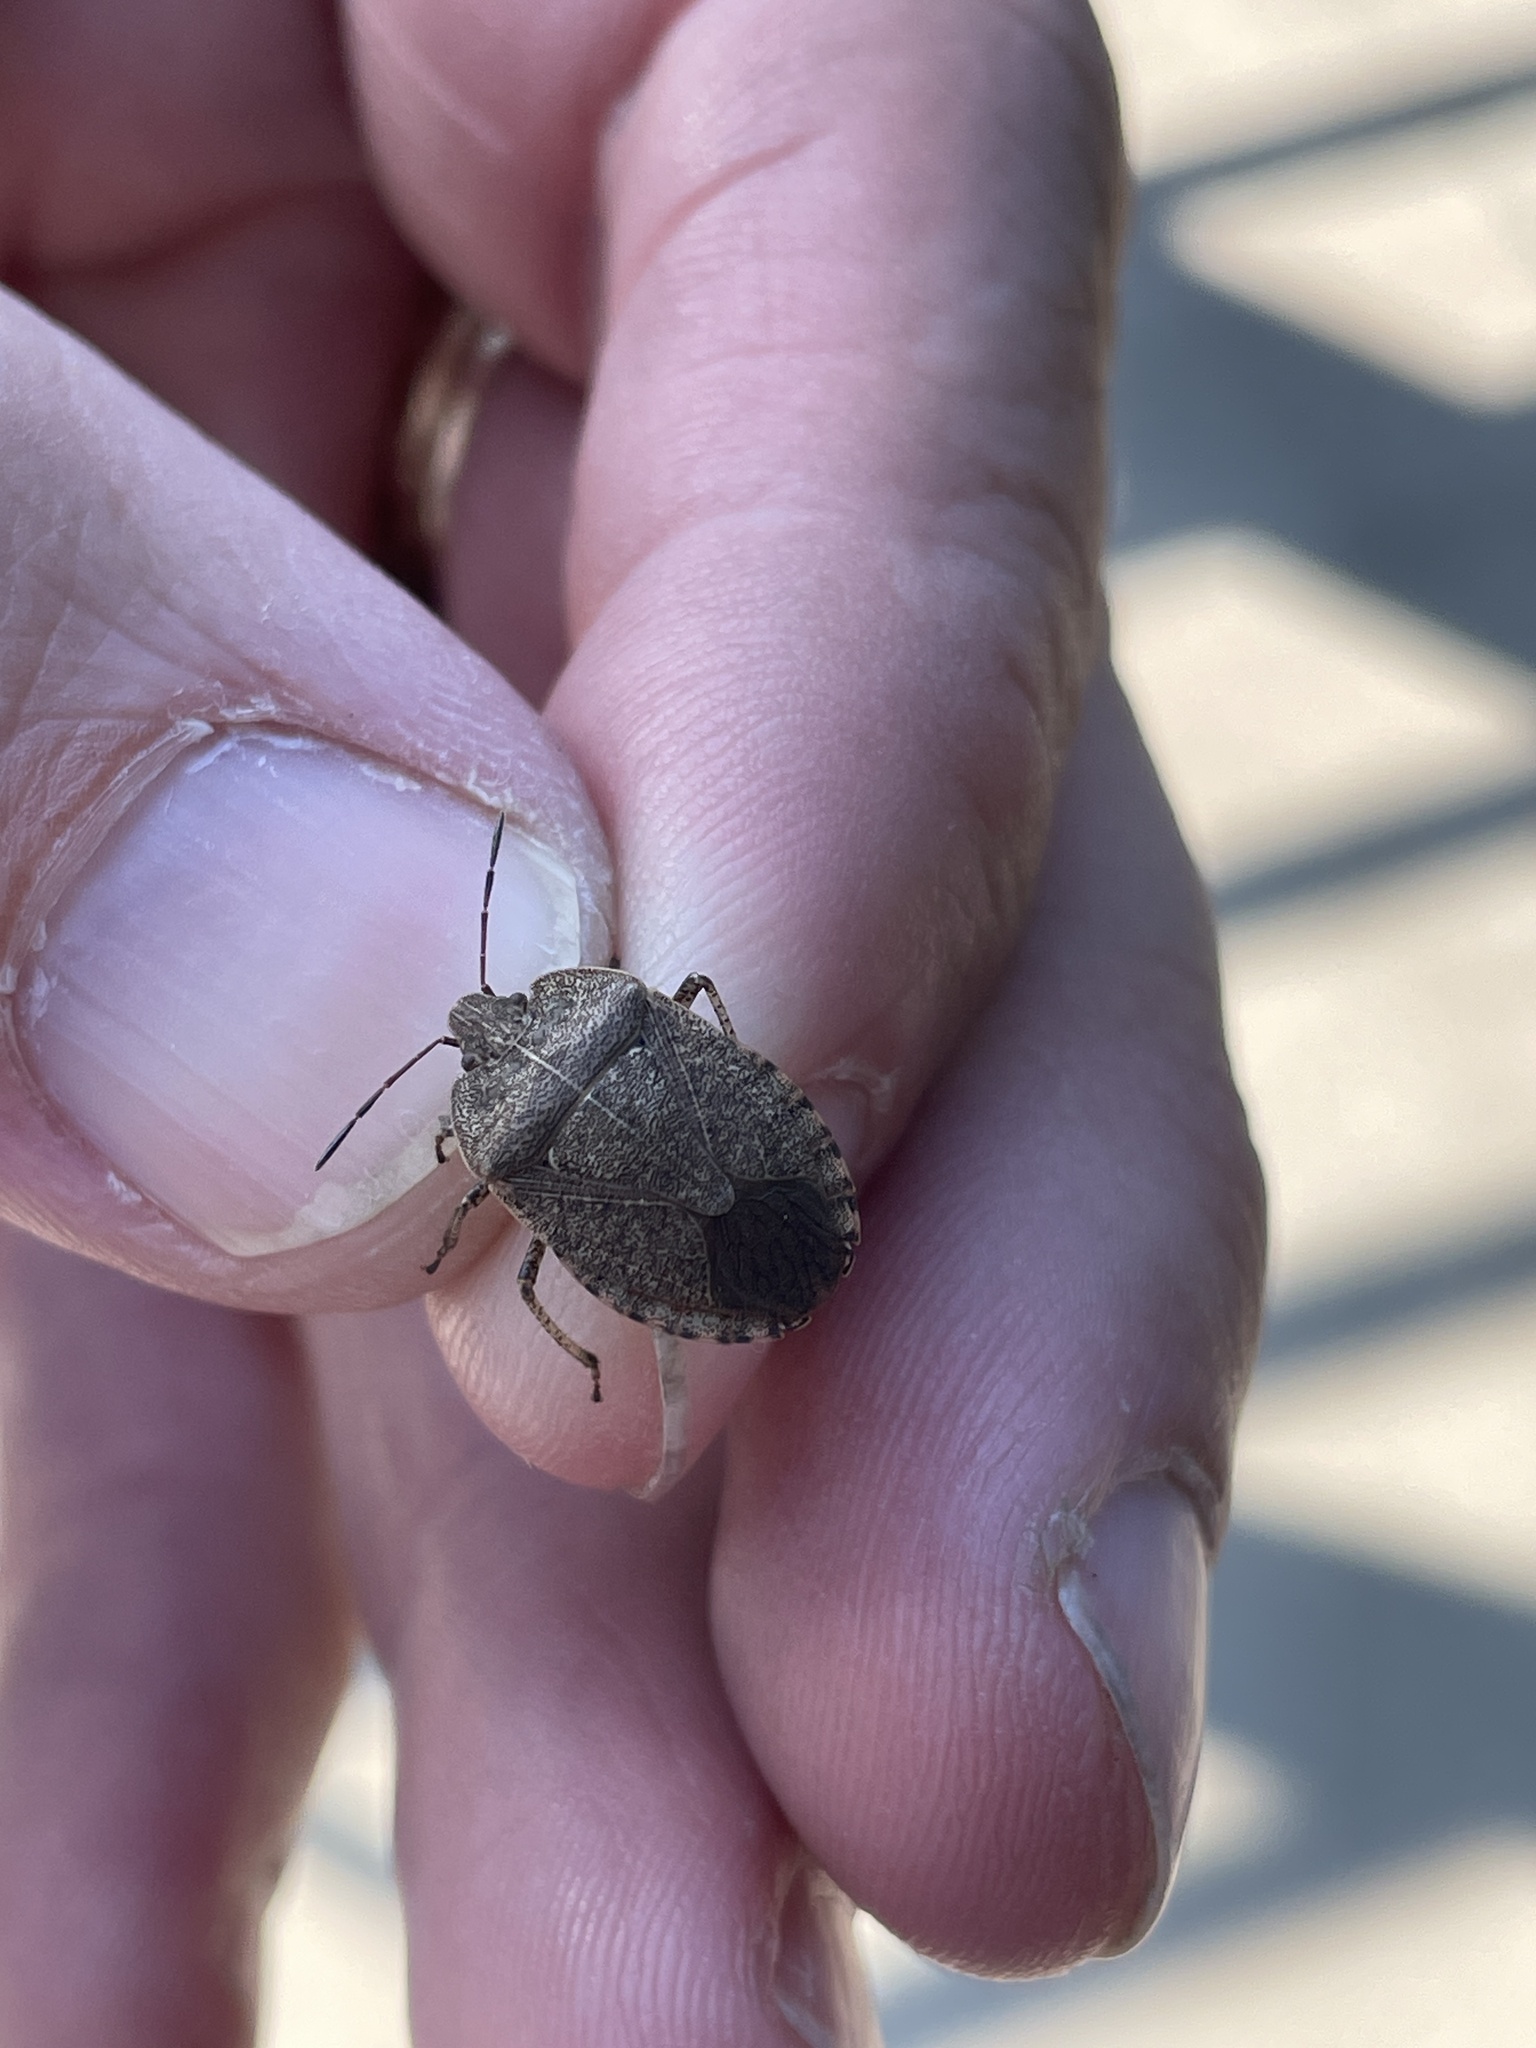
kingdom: Animalia
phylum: Arthropoda
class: Insecta
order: Hemiptera
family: Pentatomidae
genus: Menecles
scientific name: Menecles insertus
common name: Elf shoe stink bug
